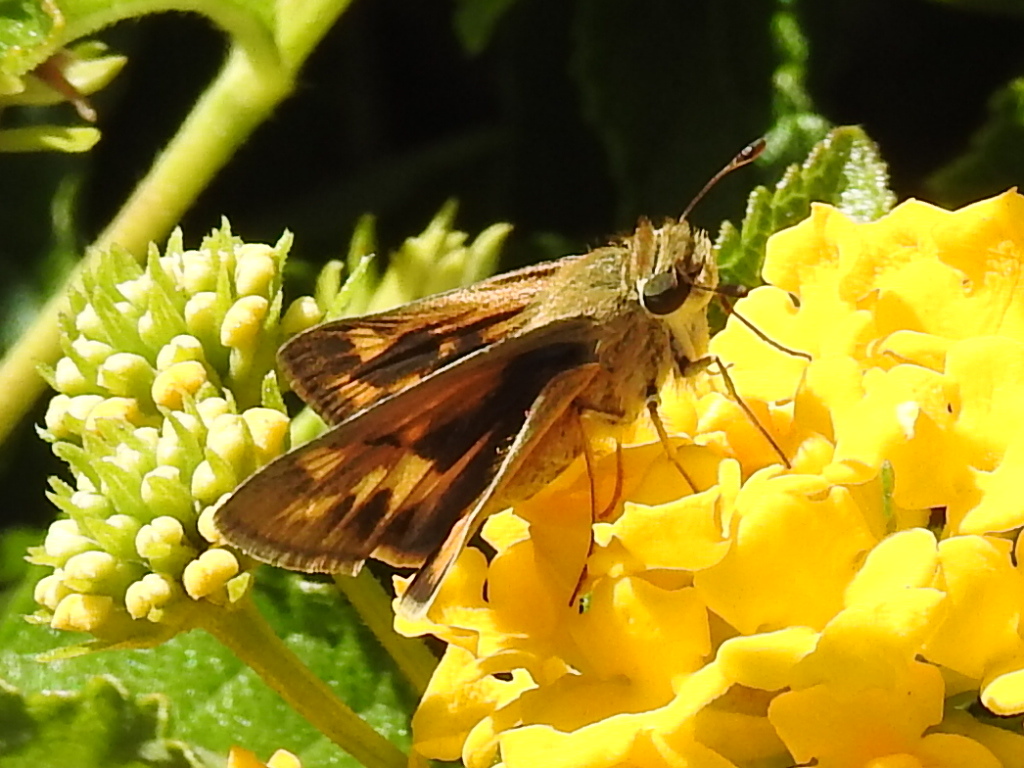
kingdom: Animalia
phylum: Arthropoda
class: Insecta
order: Lepidoptera
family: Hesperiidae
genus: Hylephila
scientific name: Hylephila phyleus
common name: Fiery skipper
